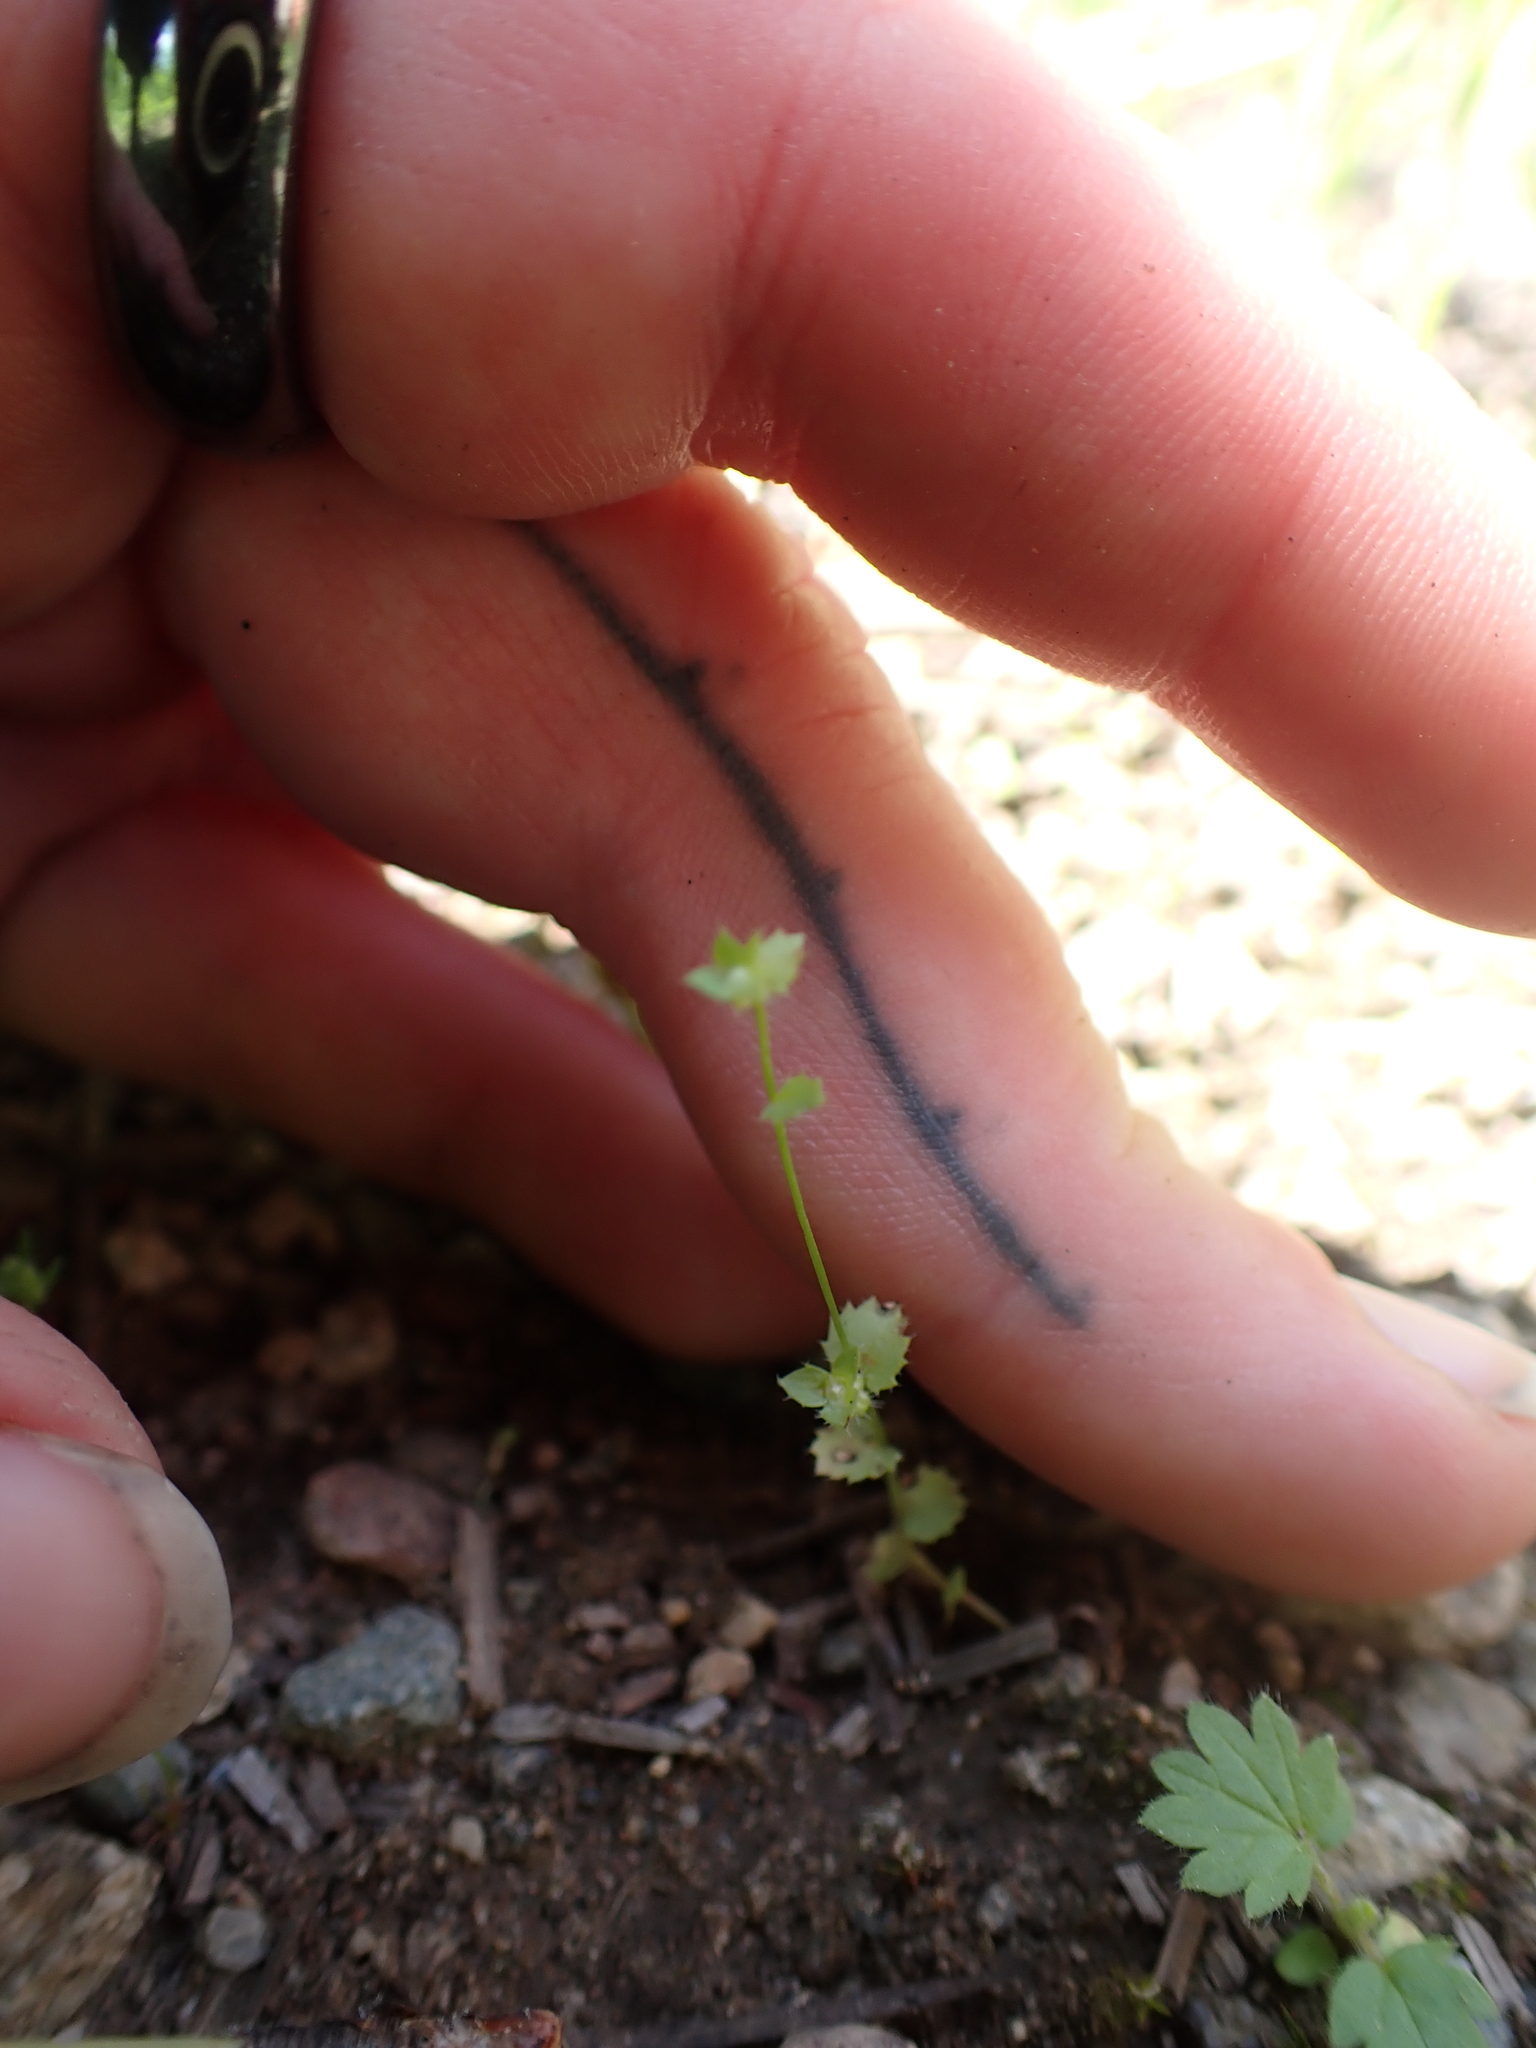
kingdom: Plantae
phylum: Tracheophyta
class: Magnoliopsida
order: Asterales
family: Campanulaceae
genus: Heterocodon
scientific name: Heterocodon rariflorum
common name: Rareflower heterocodon
